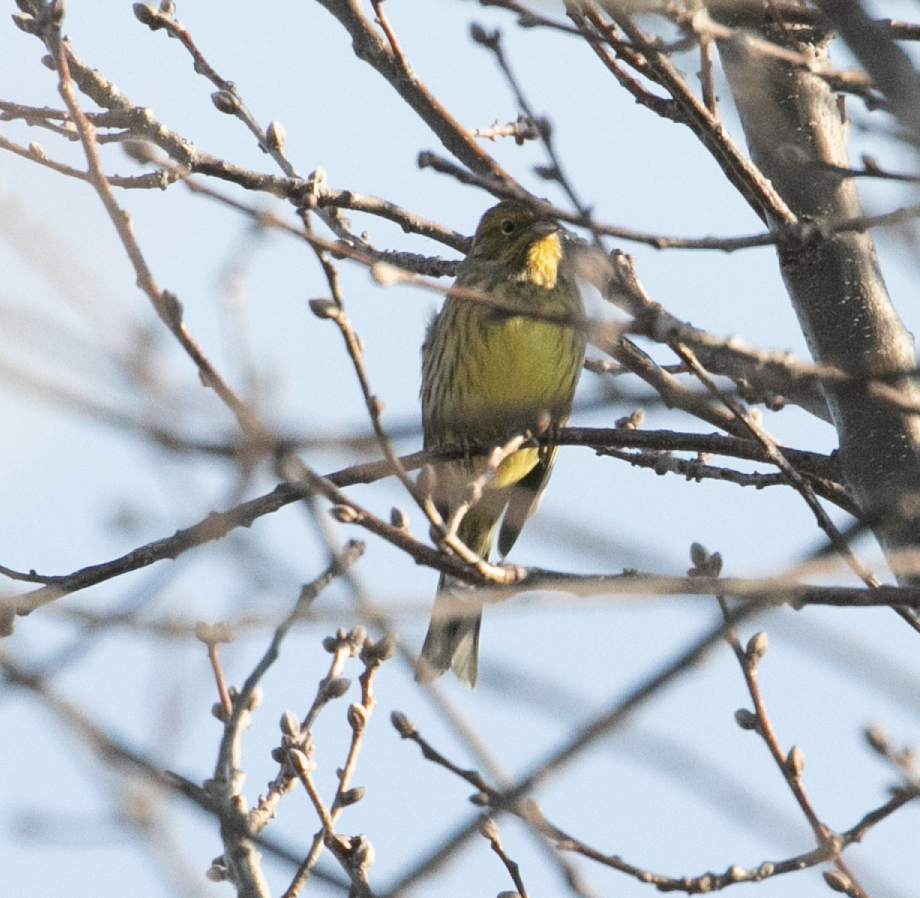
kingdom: Animalia
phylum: Chordata
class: Aves
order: Passeriformes
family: Emberizidae
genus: Emberiza
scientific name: Emberiza citrinella
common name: Yellowhammer
